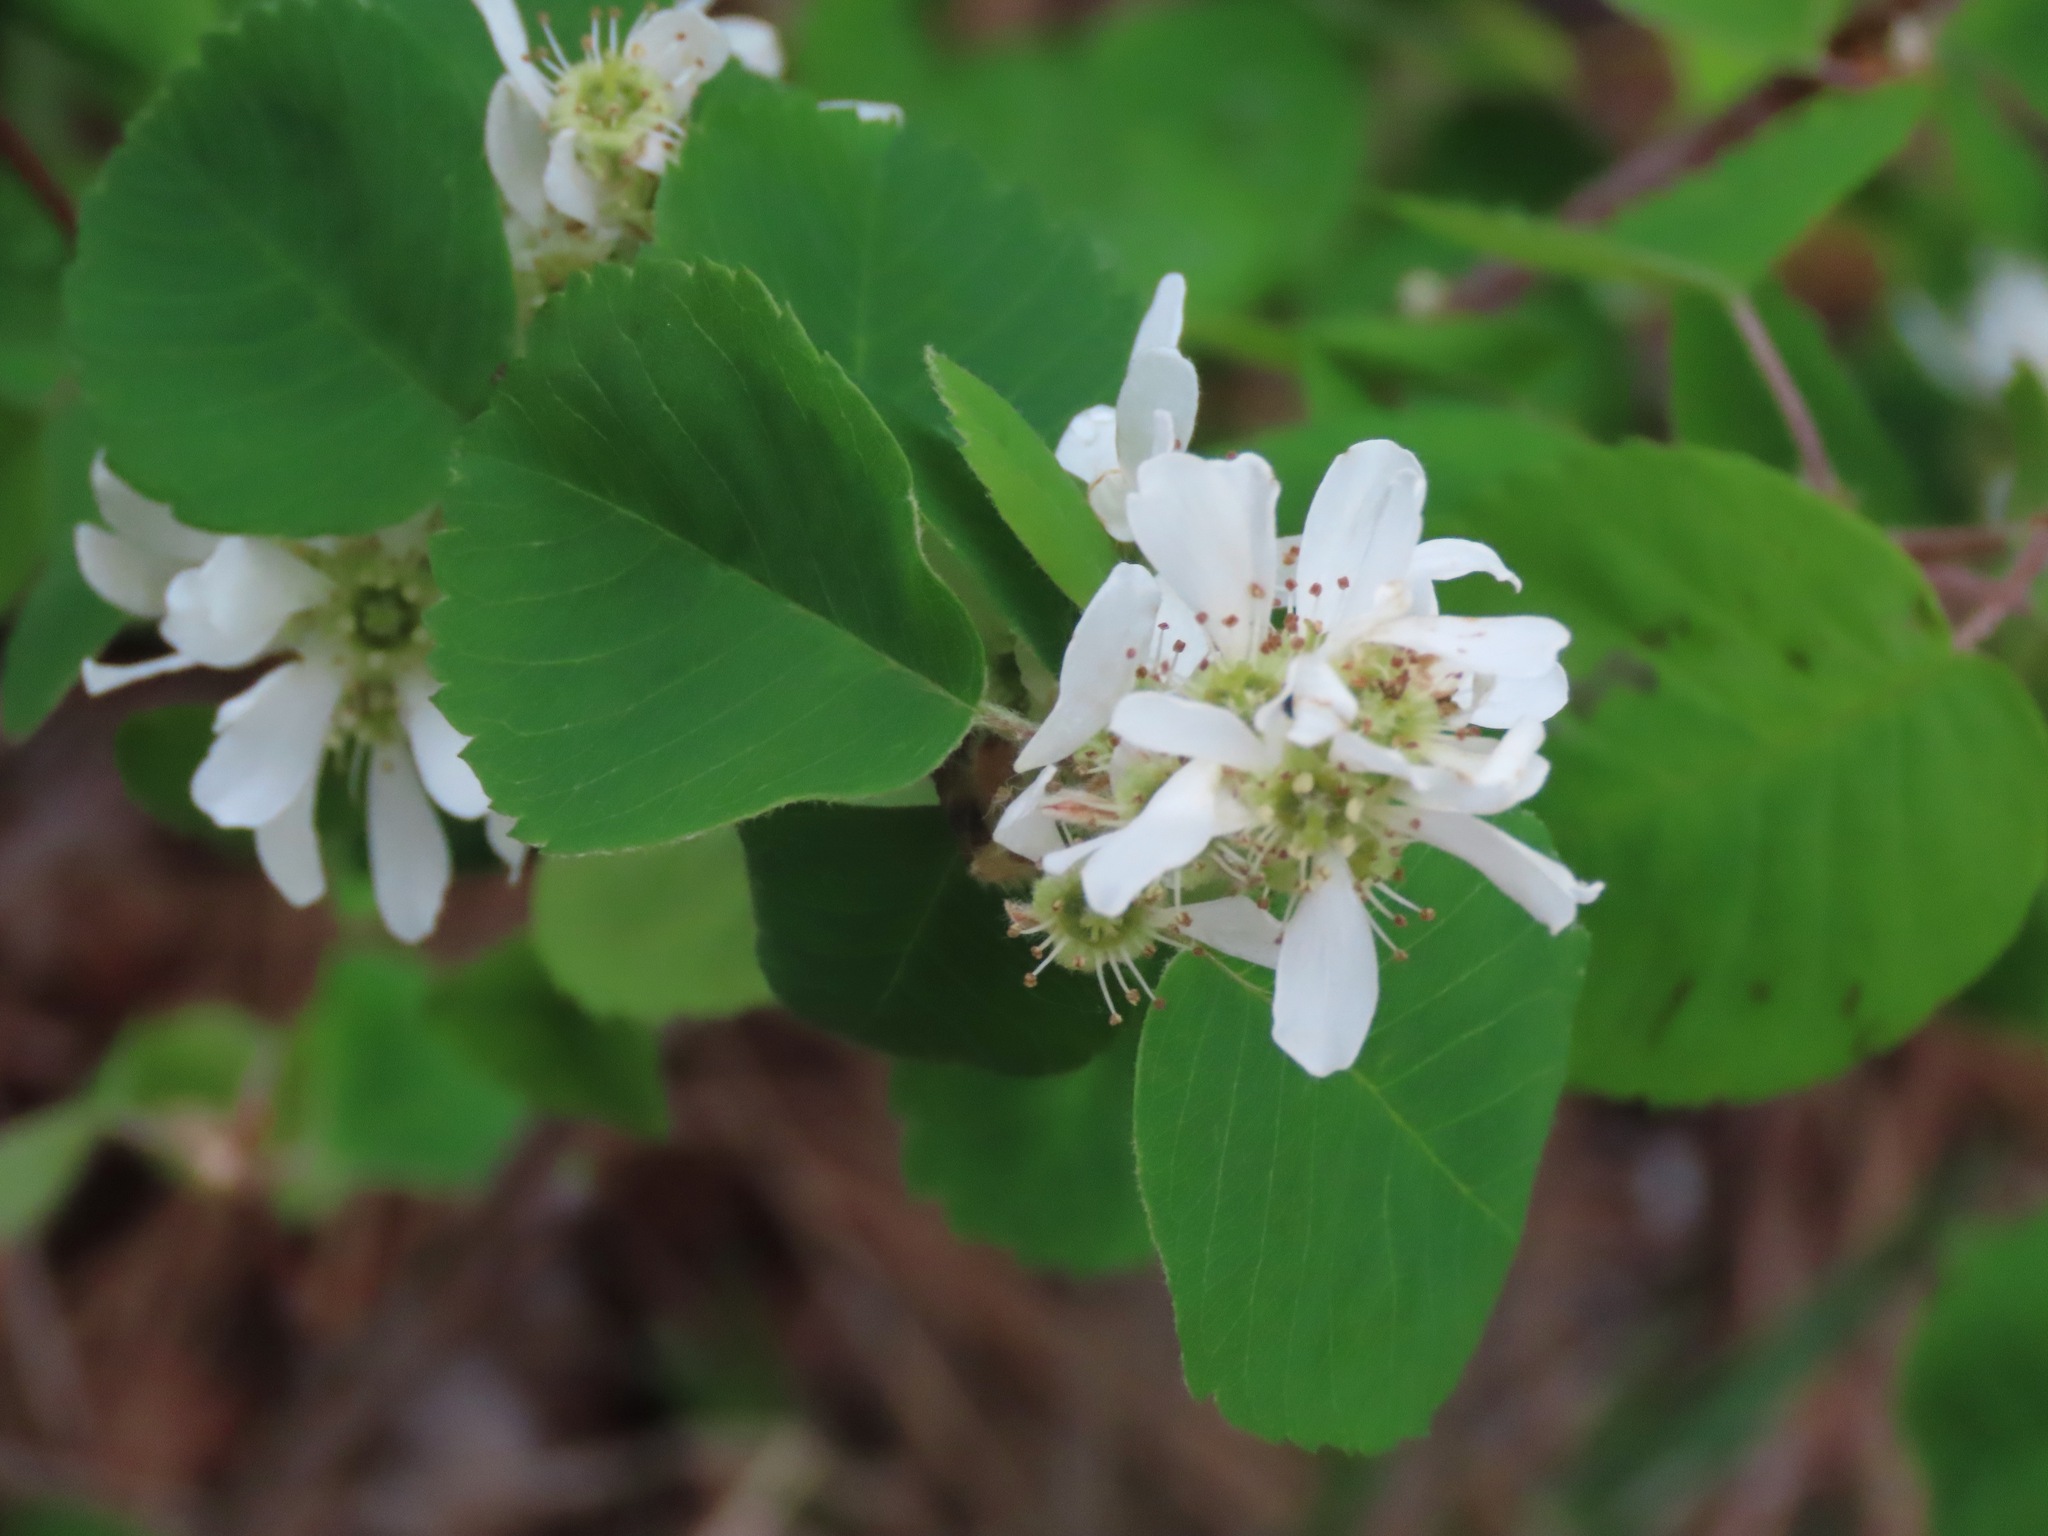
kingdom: Plantae
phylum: Tracheophyta
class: Magnoliopsida
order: Rosales
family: Rosaceae
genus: Amelanchier
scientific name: Amelanchier alnifolia
